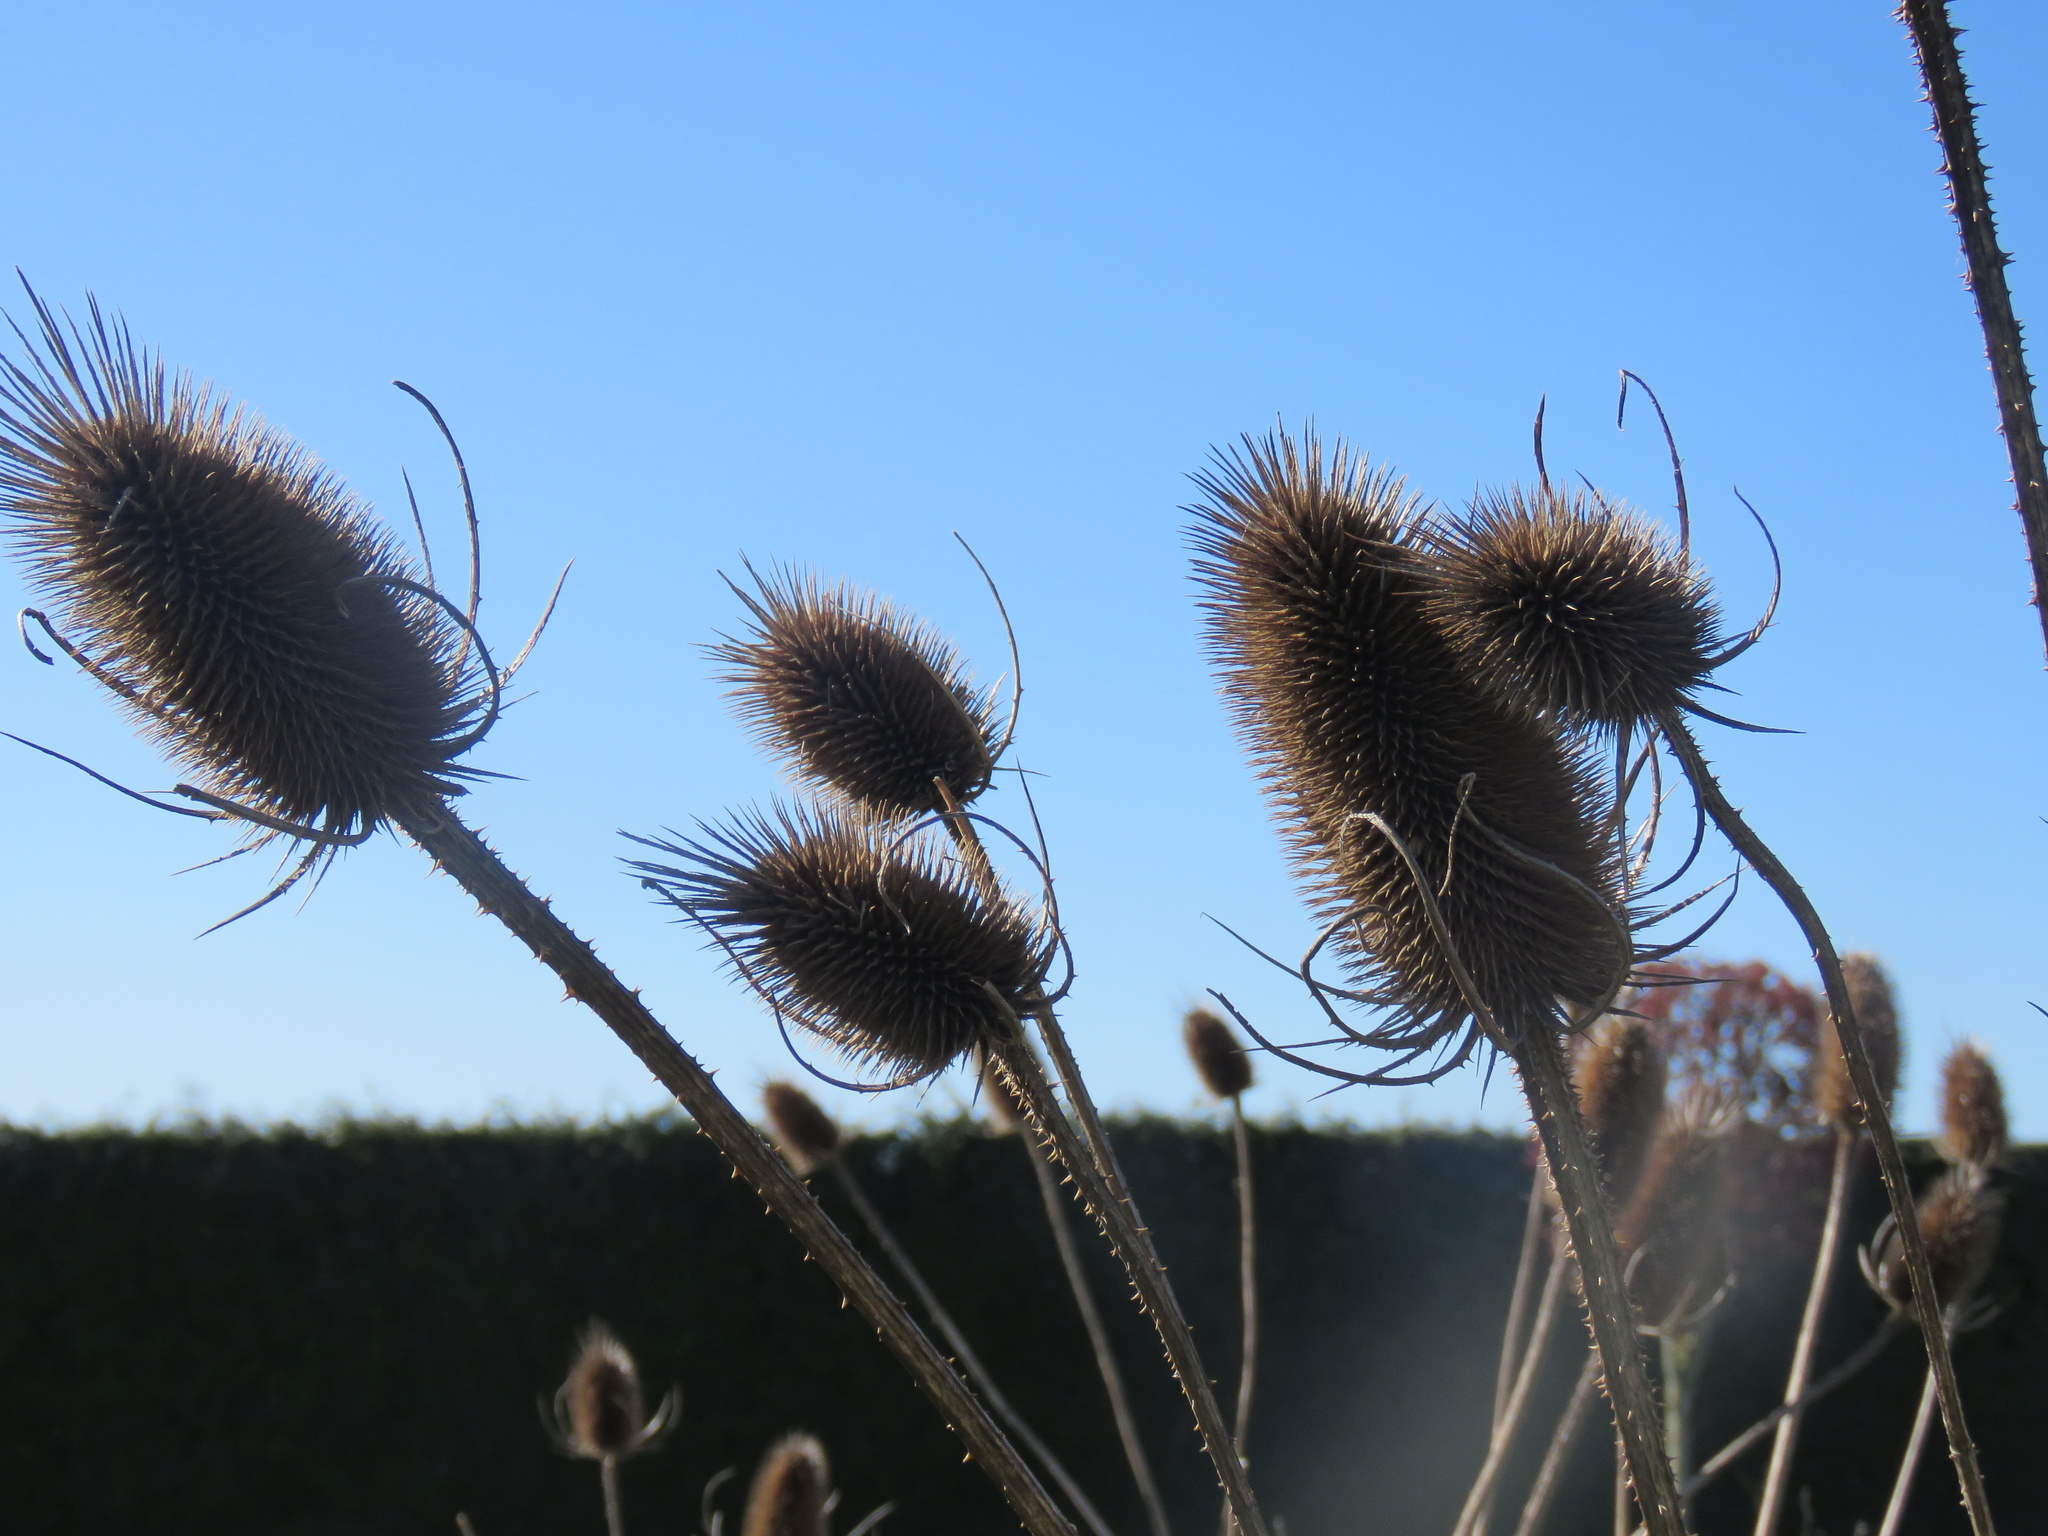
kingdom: Plantae
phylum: Tracheophyta
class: Magnoliopsida
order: Dipsacales
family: Caprifoliaceae
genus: Dipsacus
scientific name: Dipsacus fullonum
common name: Teasel
